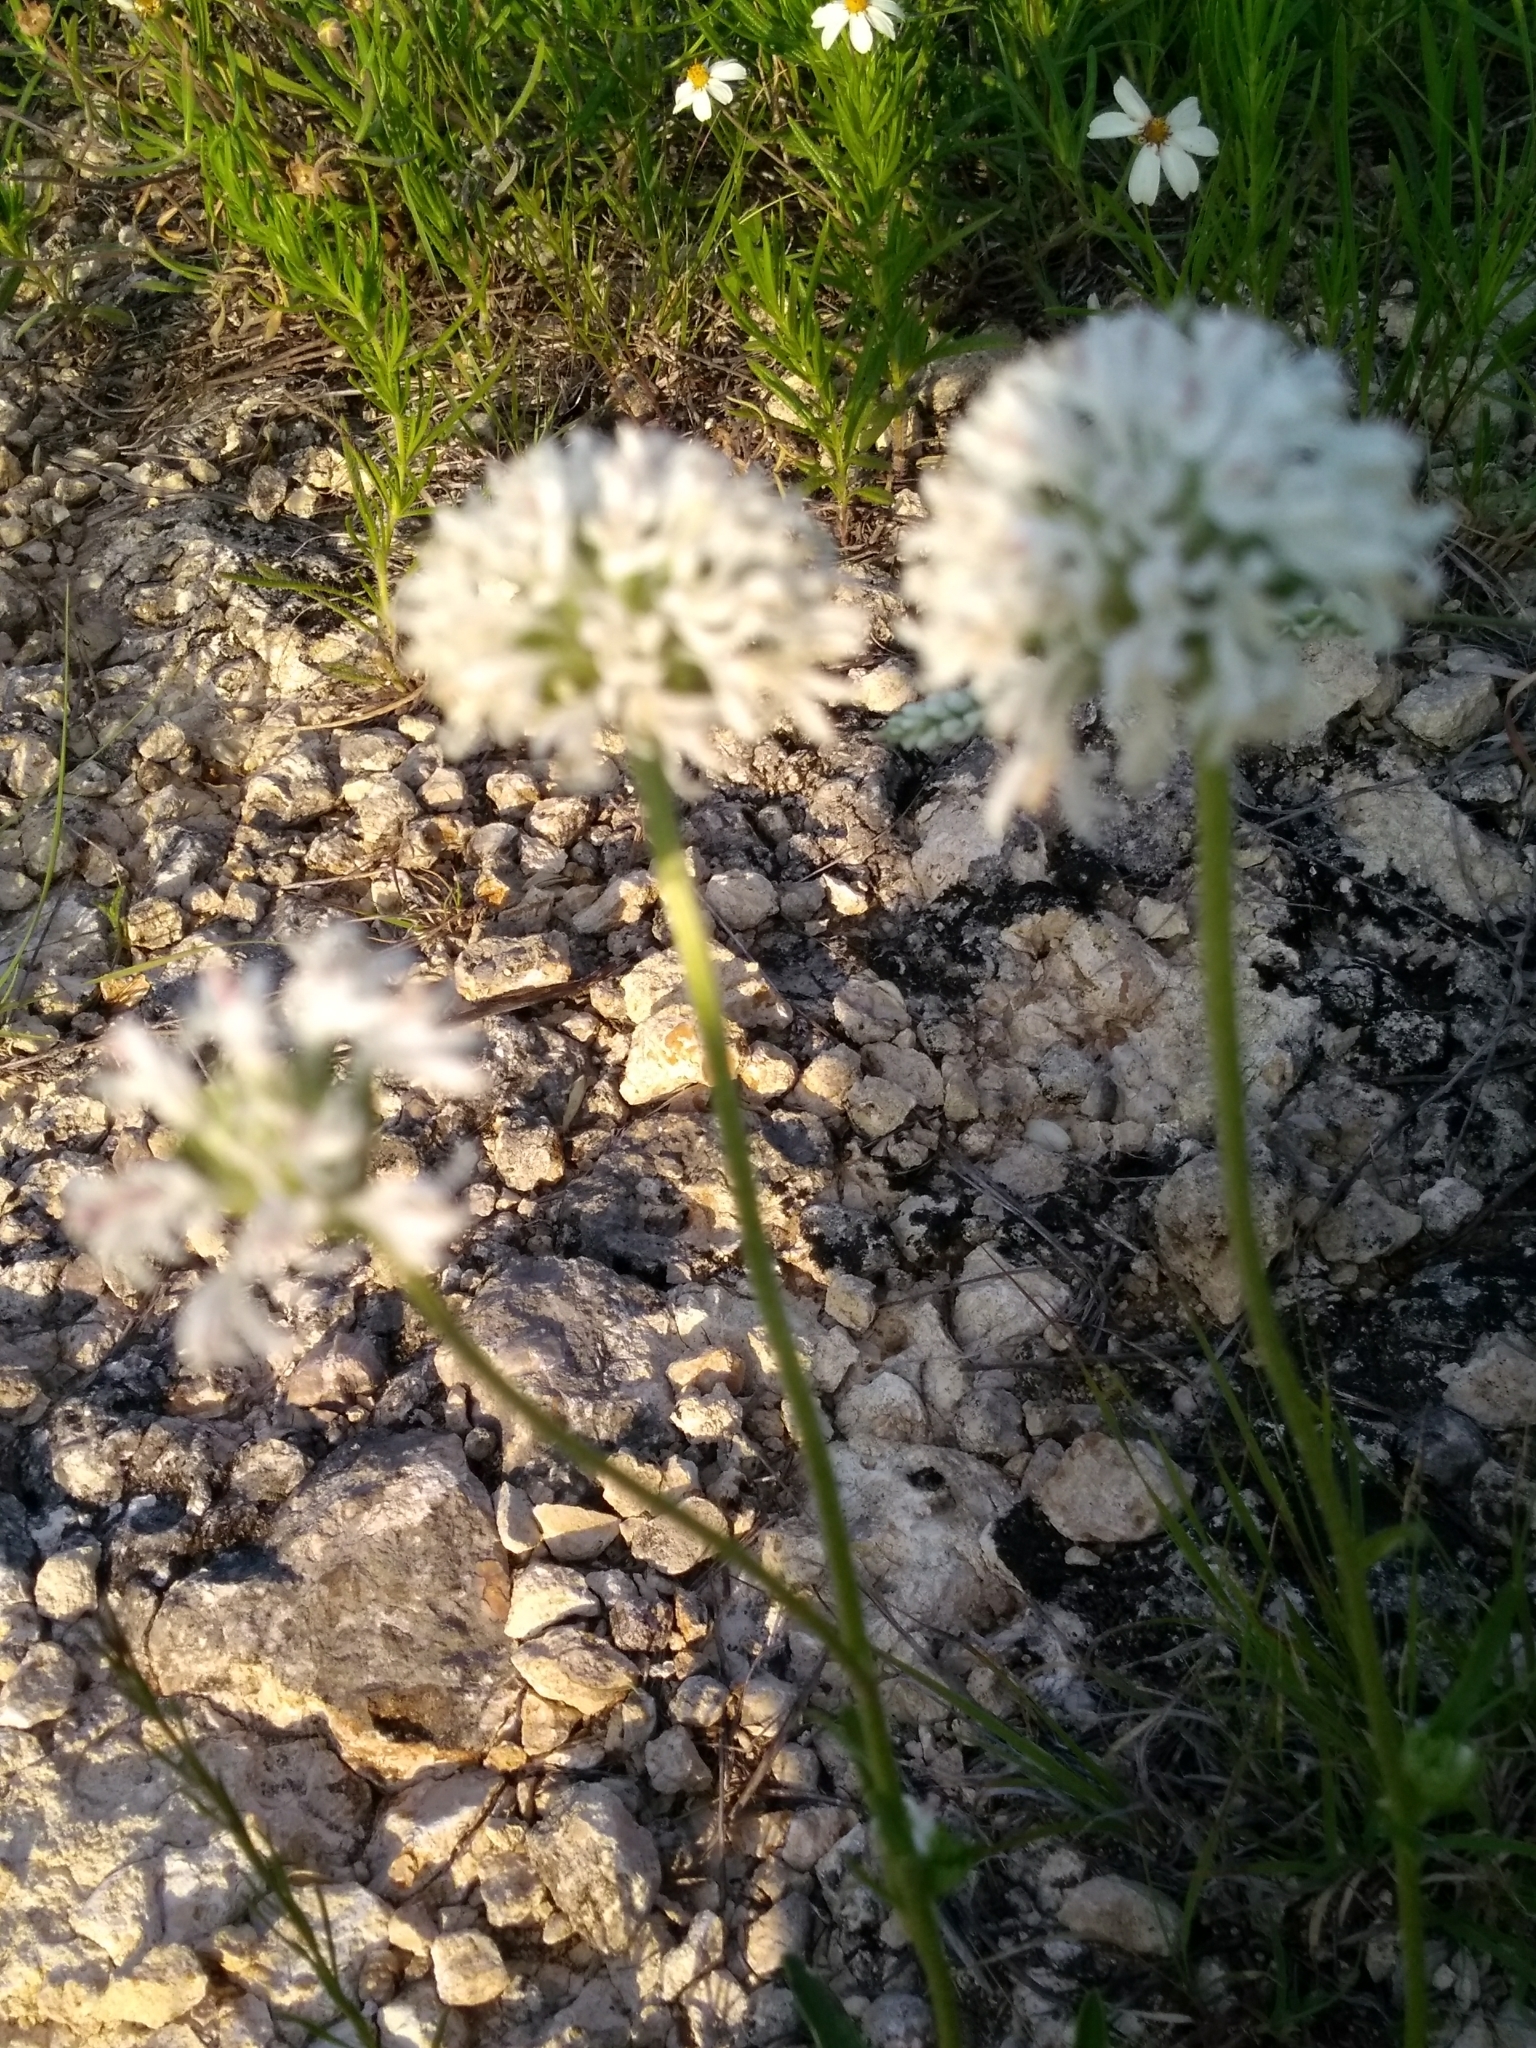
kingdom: Plantae
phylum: Tracheophyta
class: Magnoliopsida
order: Asterales
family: Asteraceae
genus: Marshallia
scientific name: Marshallia caespitosa
